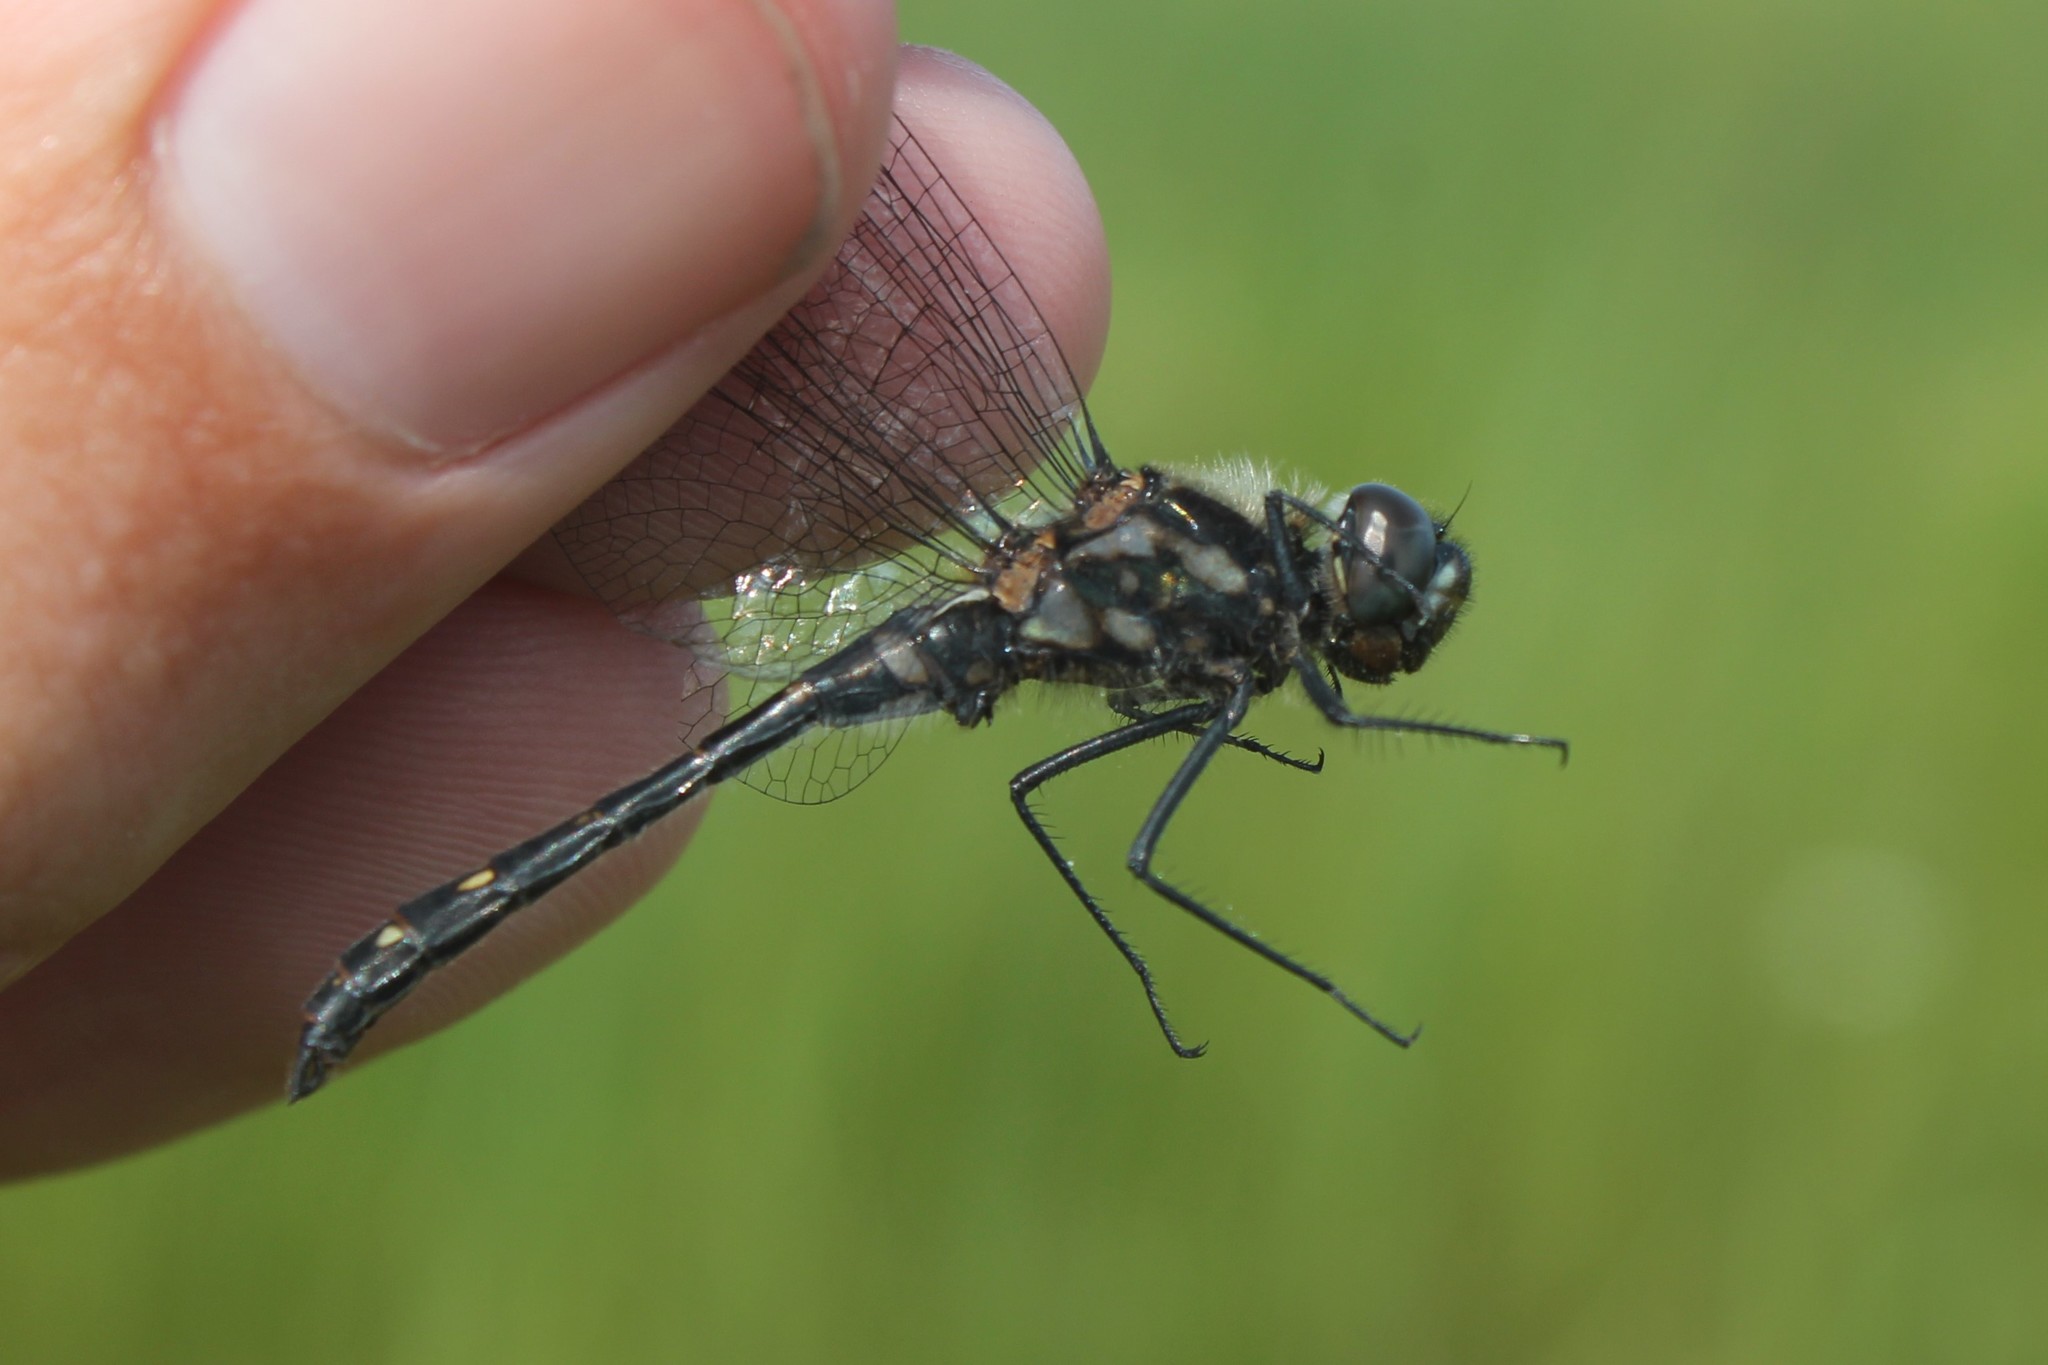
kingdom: Animalia
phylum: Arthropoda
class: Insecta
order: Odonata
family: Libellulidae
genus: Sympetrum
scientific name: Sympetrum danae
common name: Black darter
